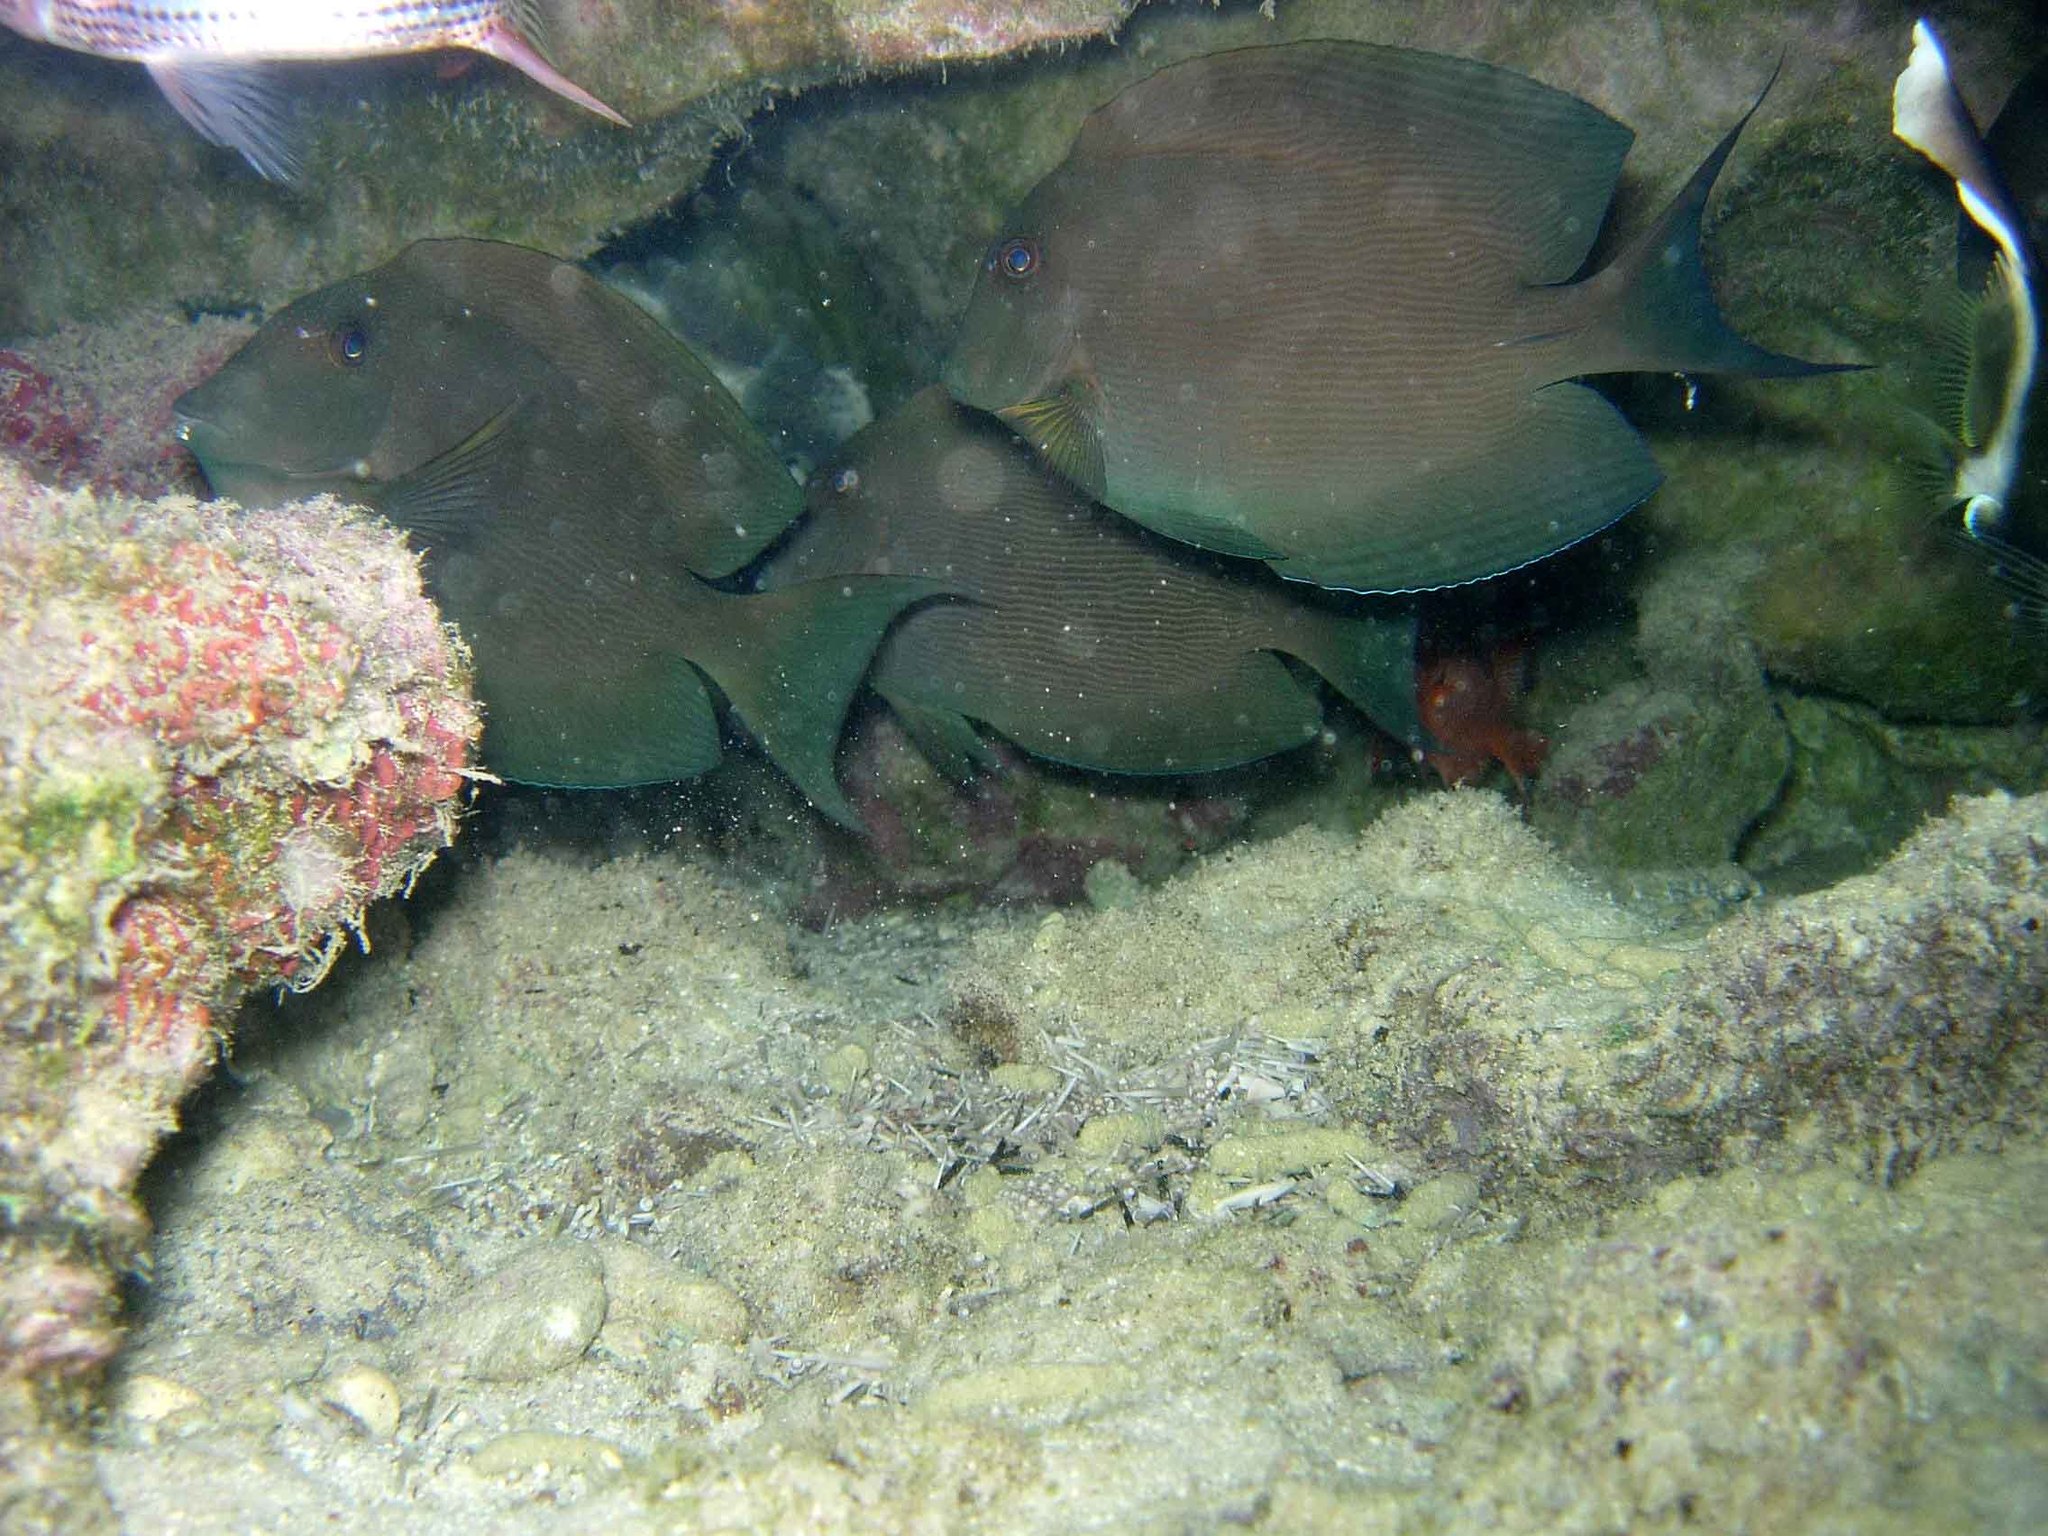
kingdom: Animalia
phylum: Chordata
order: Perciformes
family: Acanthuridae
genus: Ctenochaetus
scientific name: Ctenochaetus striatus
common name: Bristle-toothed surgeonfish
